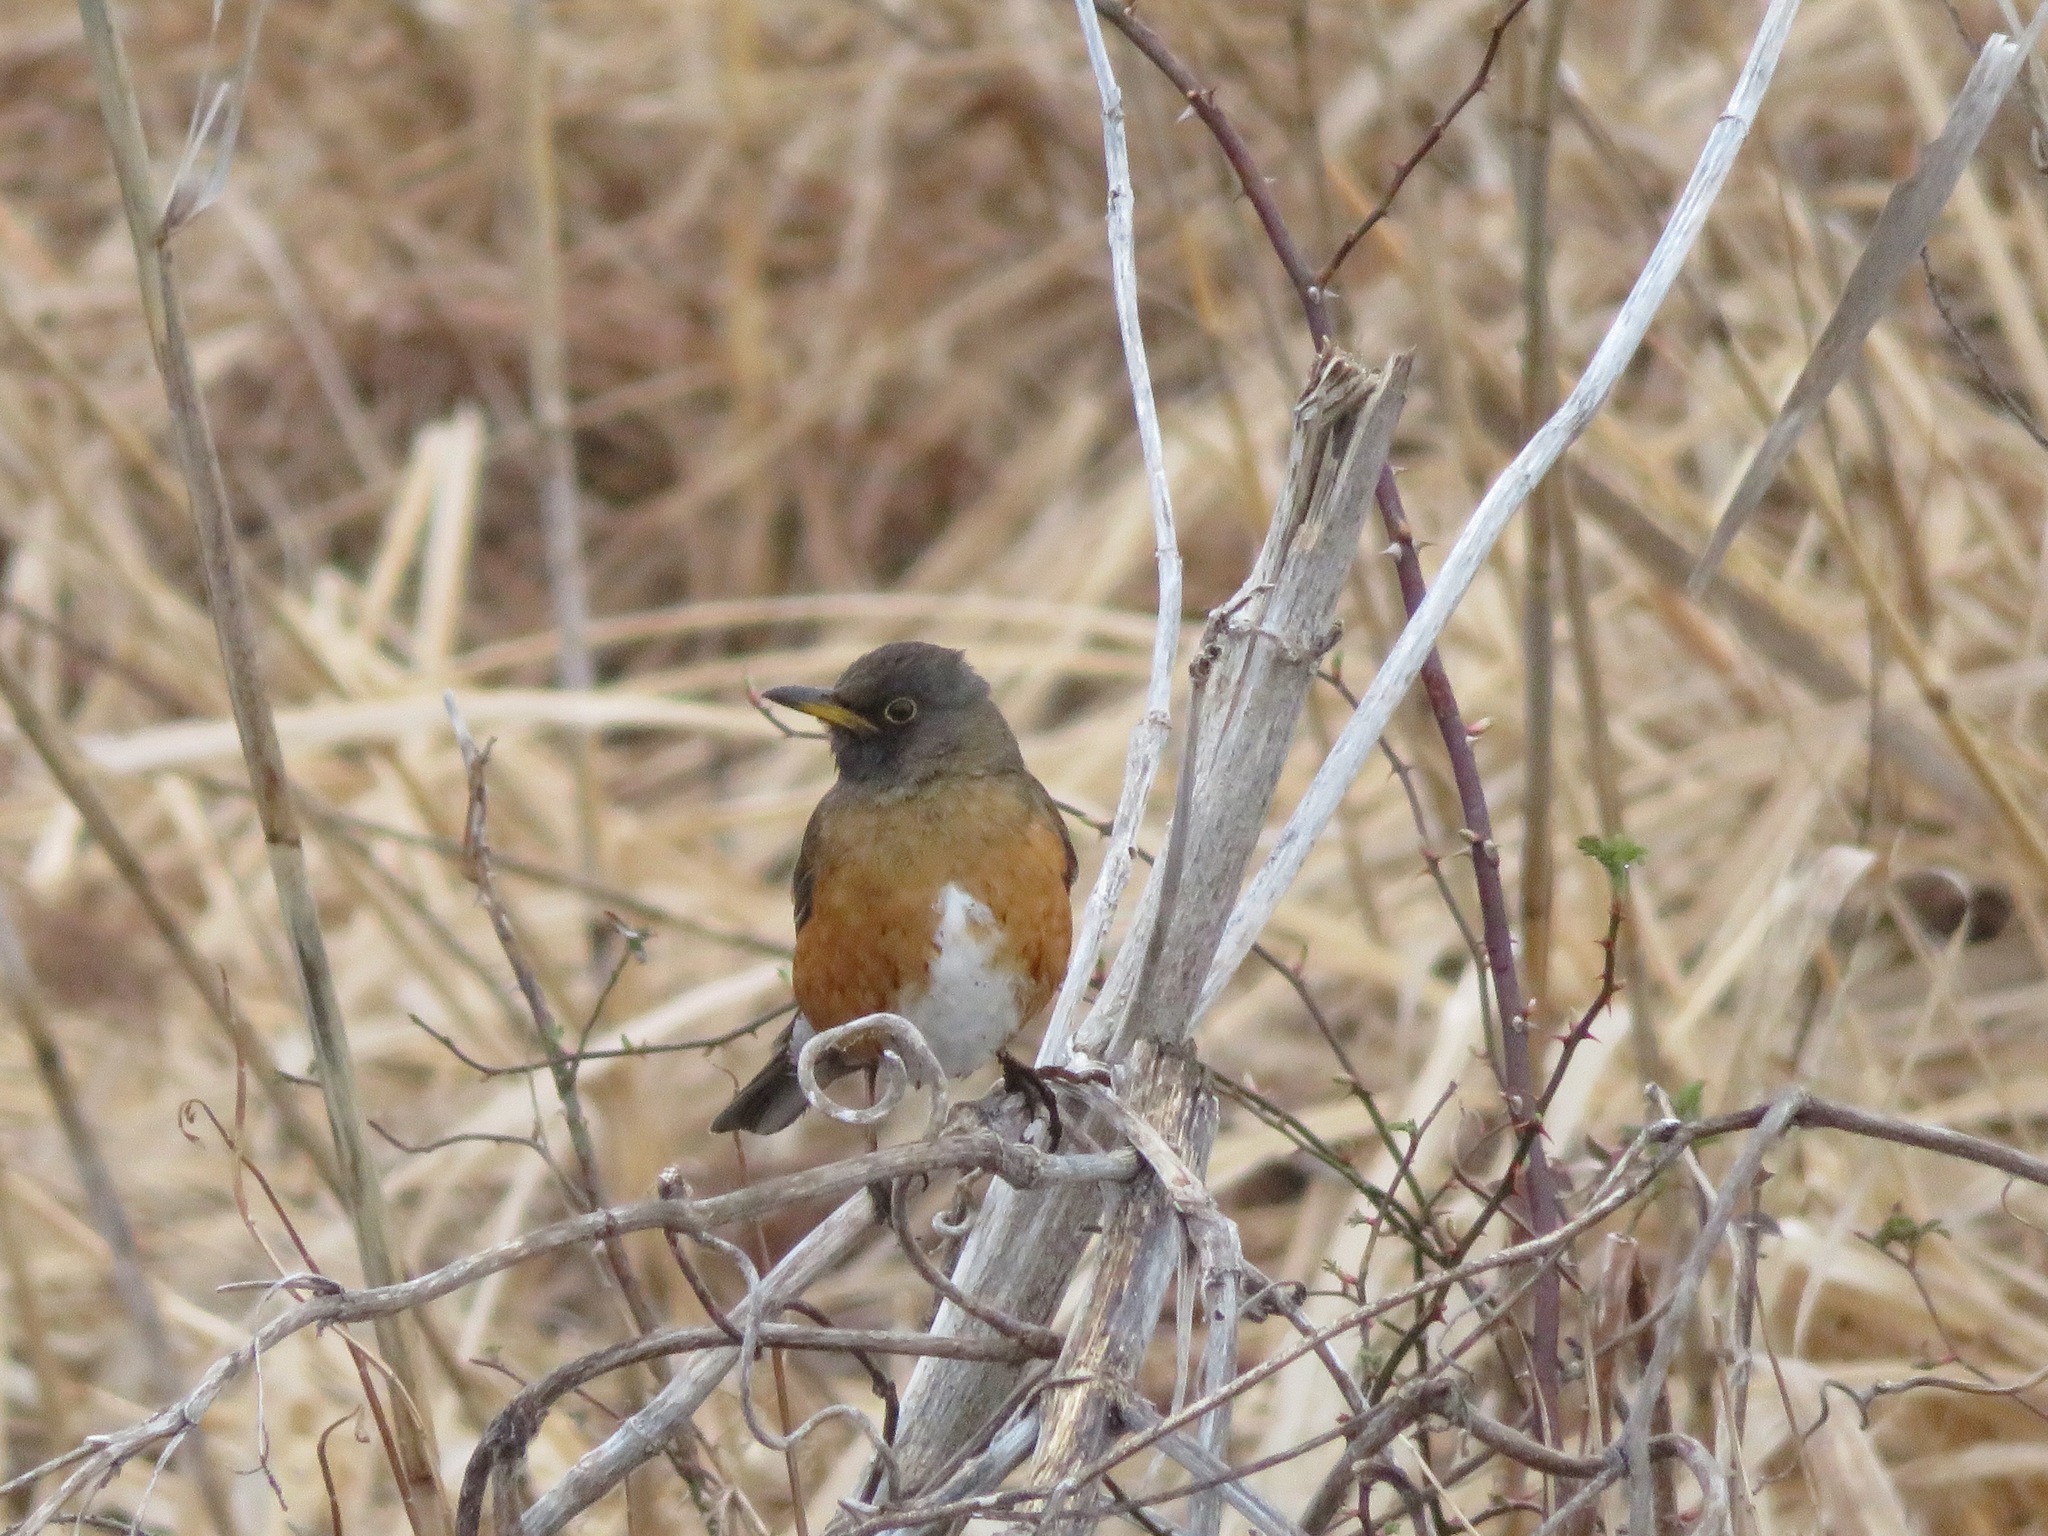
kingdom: Animalia
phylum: Chordata
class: Aves
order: Passeriformes
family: Turdidae
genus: Turdus
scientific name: Turdus chrysolaus
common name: Brown-headed thrush
